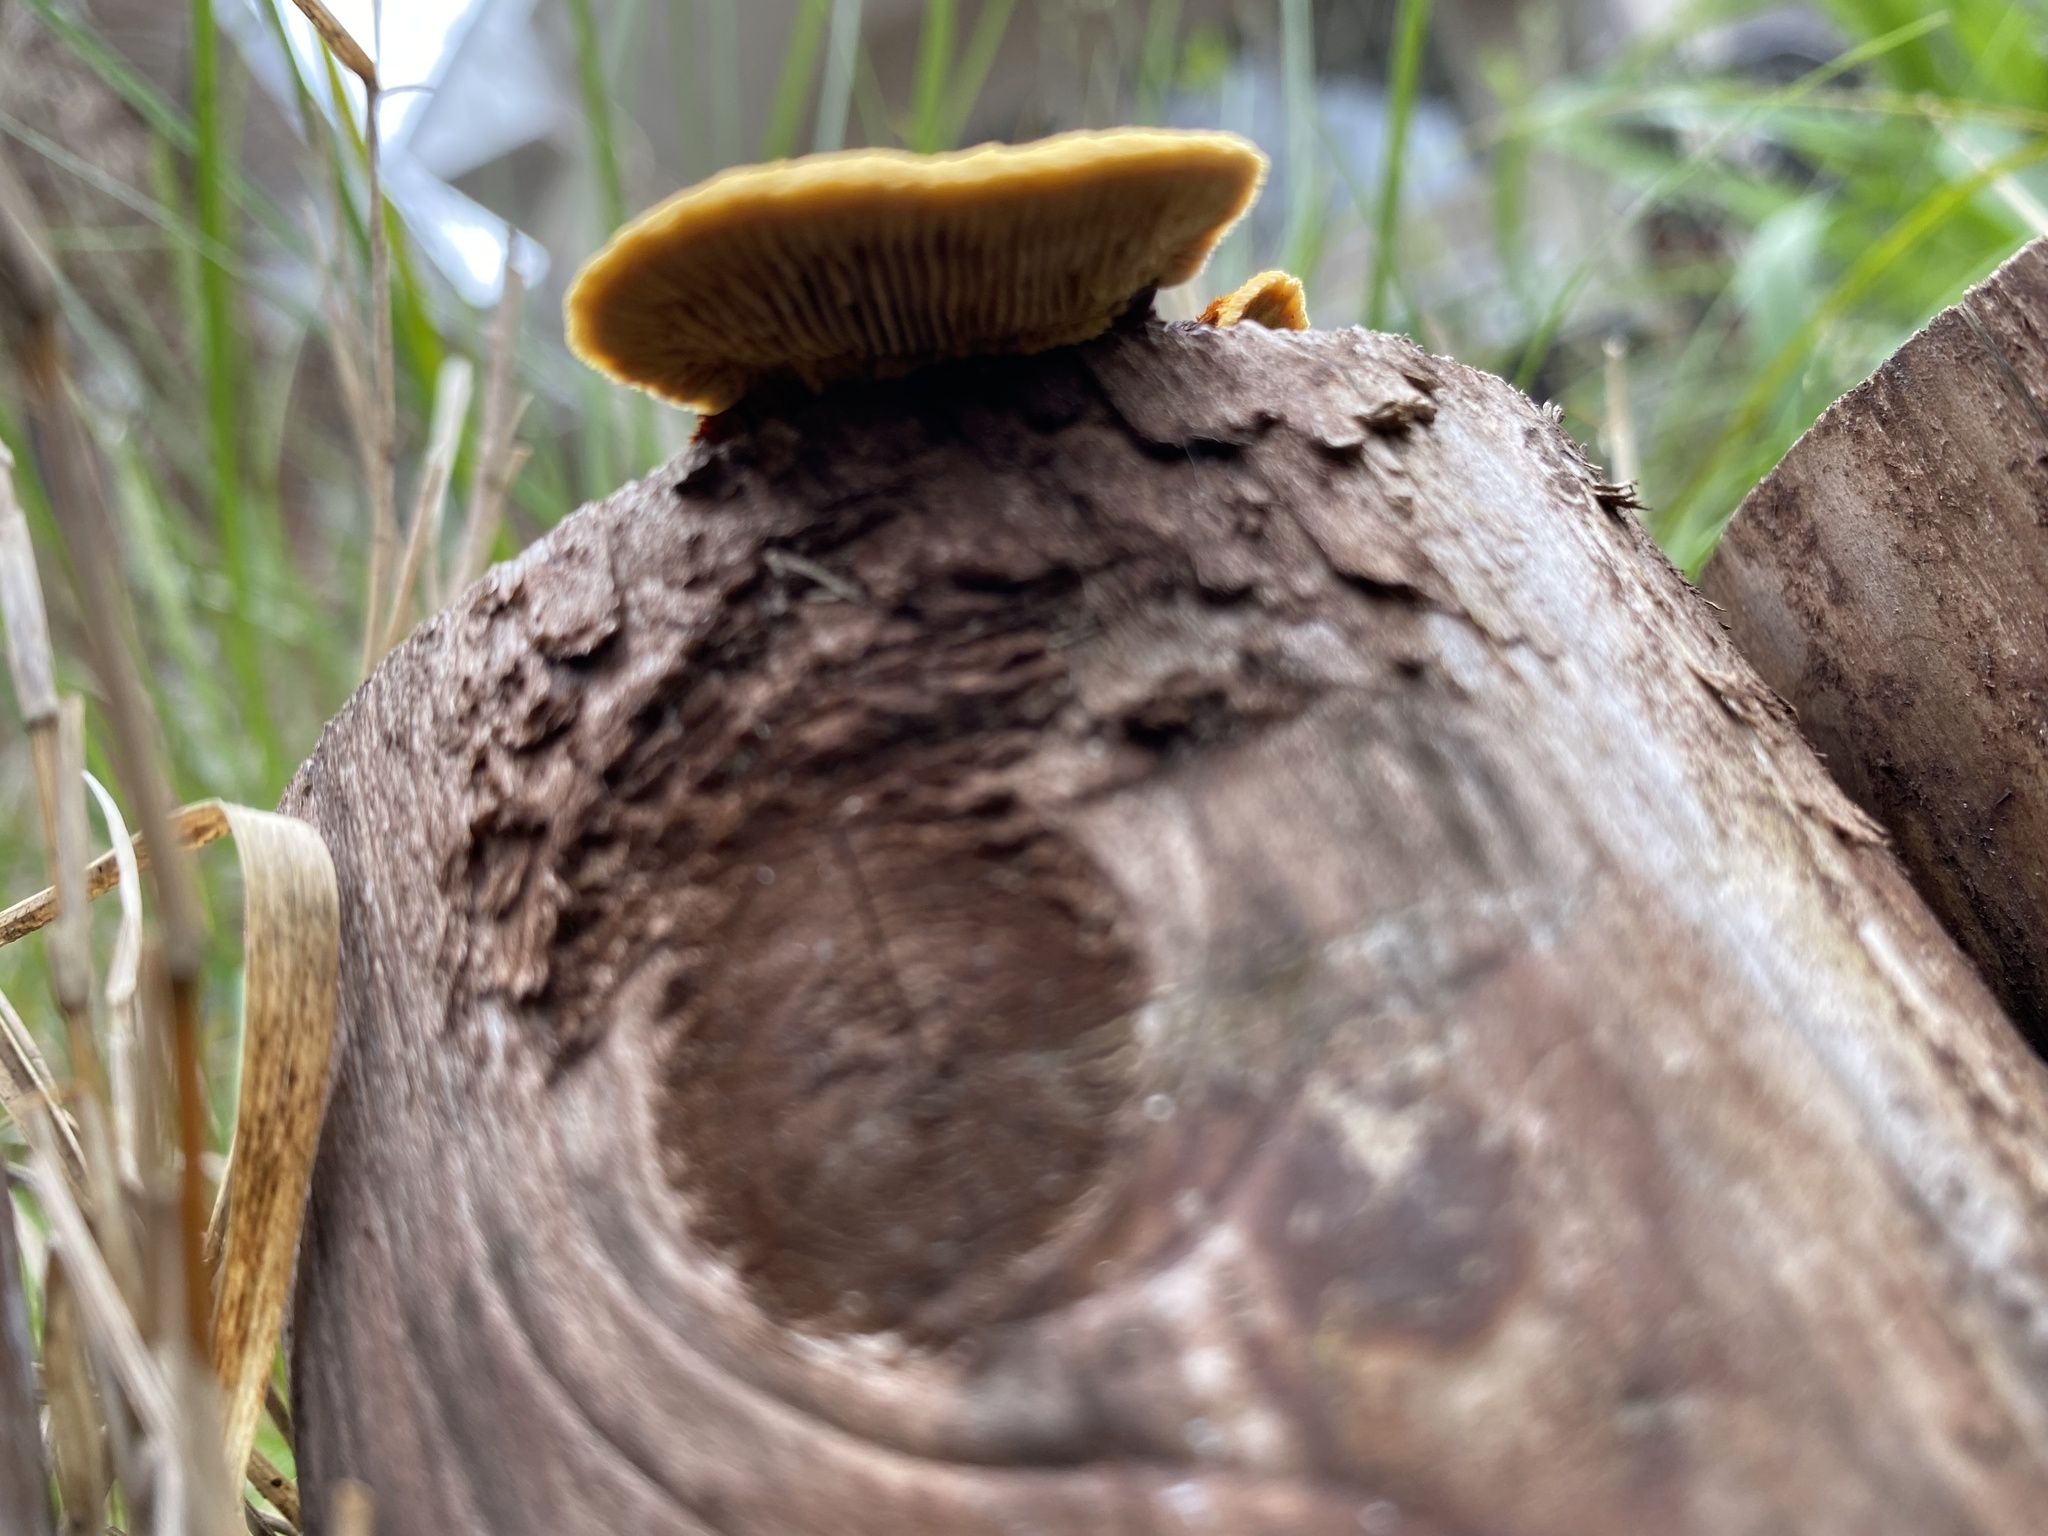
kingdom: Fungi
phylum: Basidiomycota
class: Agaricomycetes
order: Gloeophyllales
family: Gloeophyllaceae
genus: Gloeophyllum
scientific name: Gloeophyllum sepiarium
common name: Conifer mazegill
